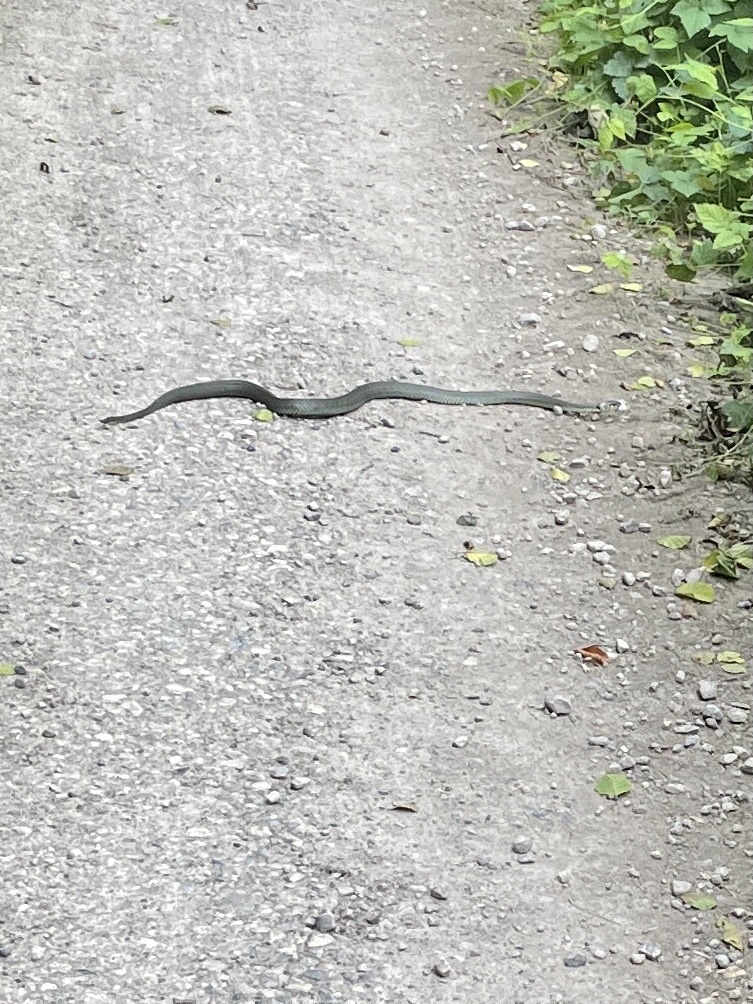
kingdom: Animalia
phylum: Chordata
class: Squamata
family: Colubridae
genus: Natrix
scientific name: Natrix natrix
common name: Grass snake
